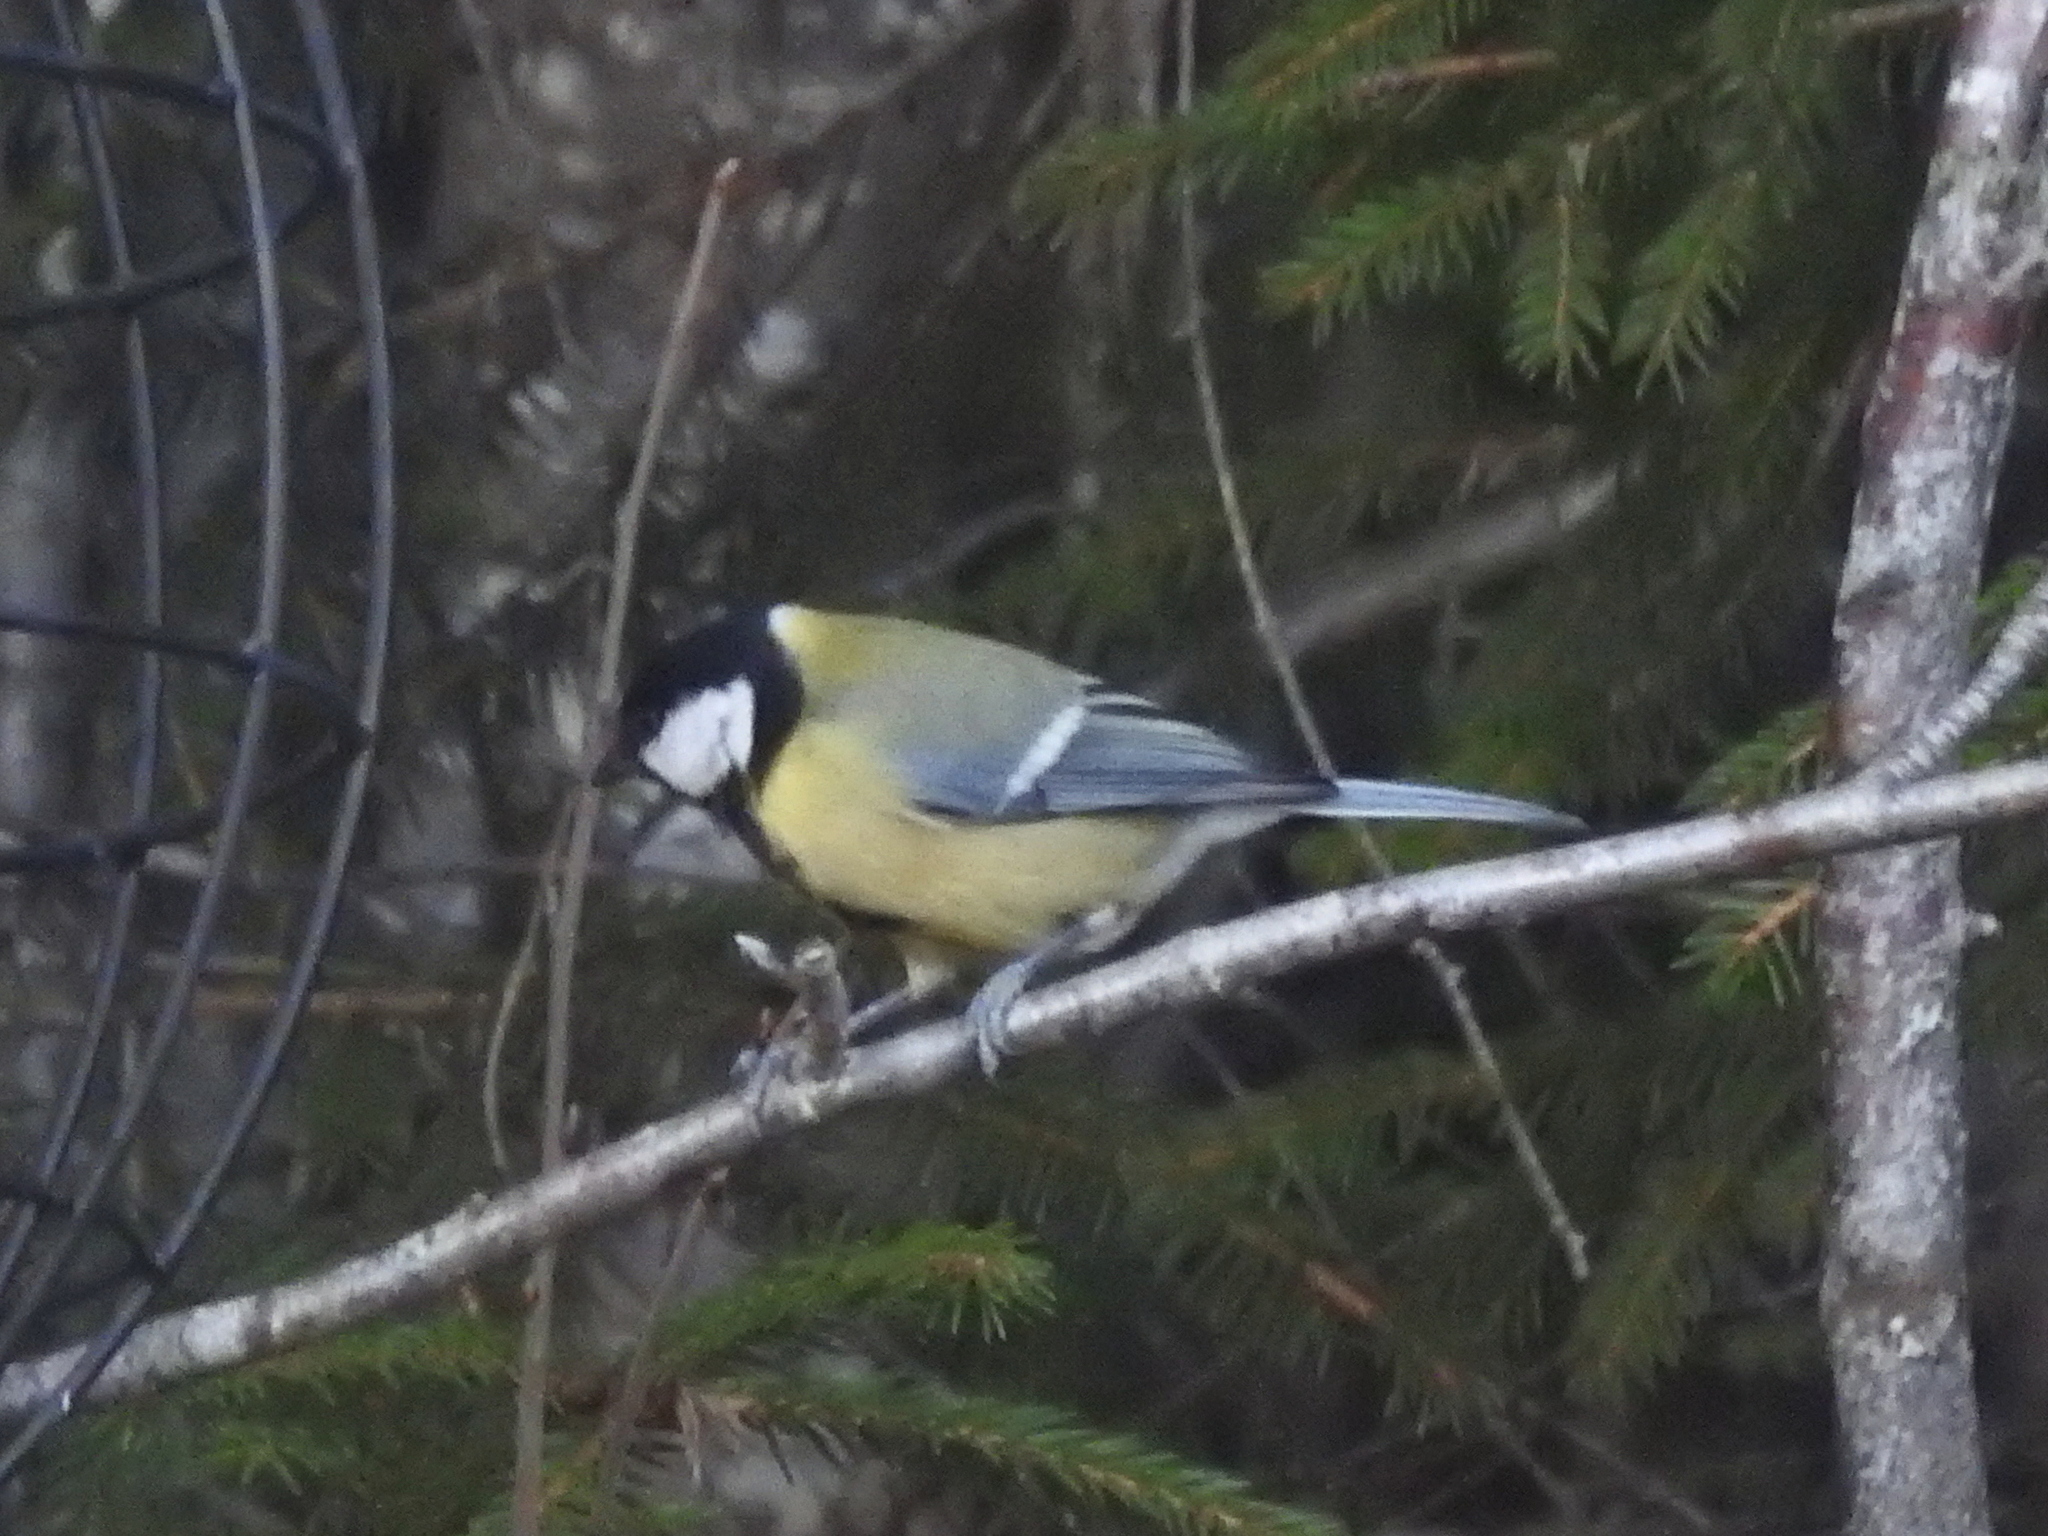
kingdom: Animalia
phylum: Chordata
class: Aves
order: Passeriformes
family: Paridae
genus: Parus
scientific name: Parus major
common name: Great tit
